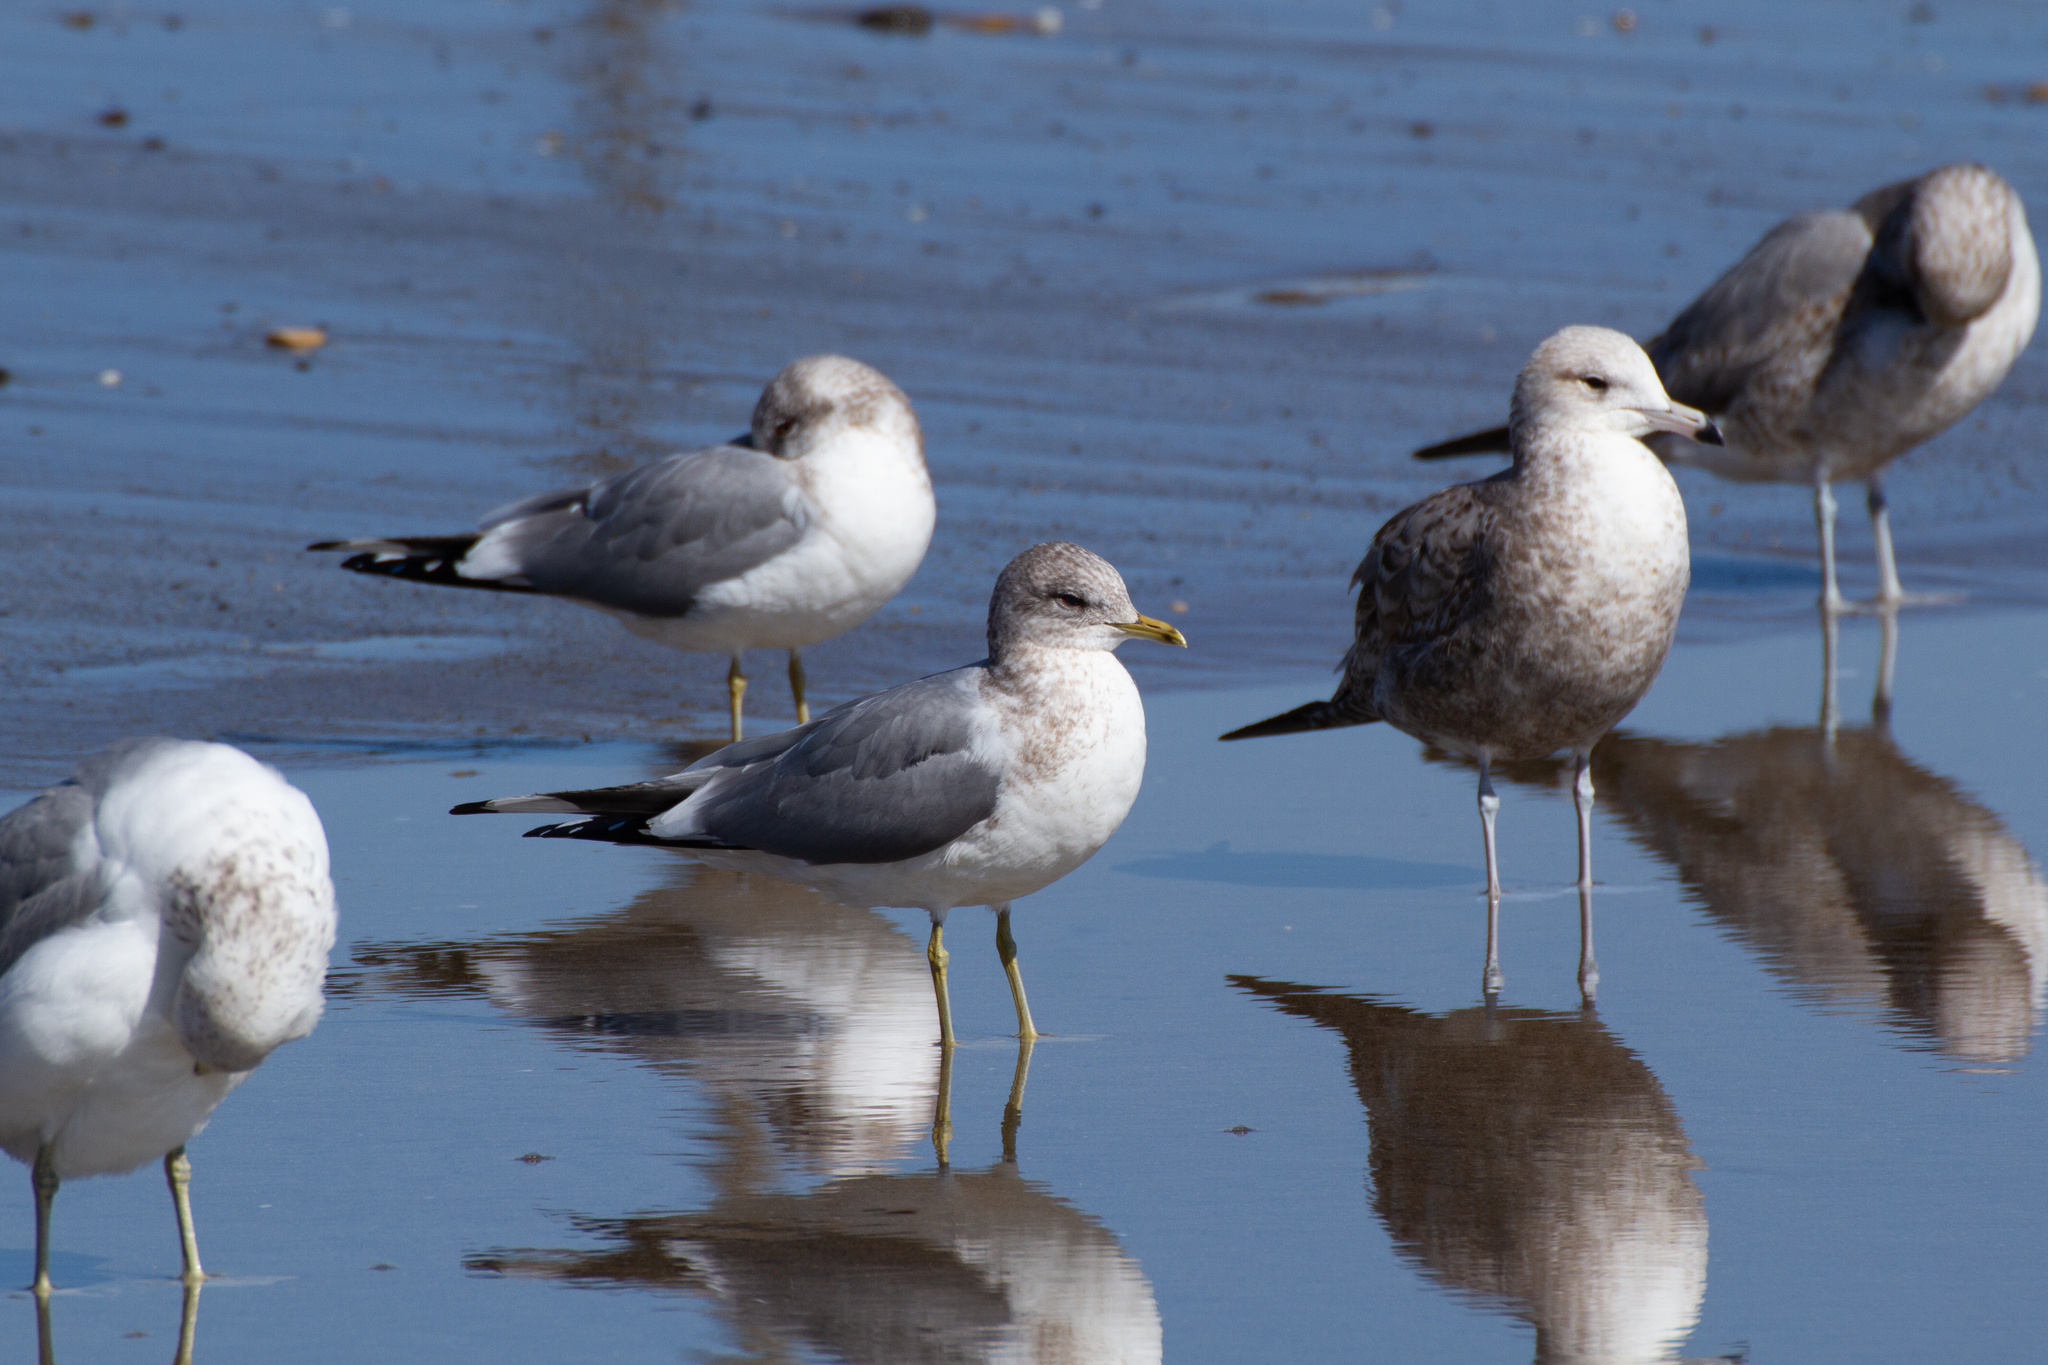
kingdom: Animalia
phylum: Chordata
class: Aves
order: Charadriiformes
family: Laridae
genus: Larus
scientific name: Larus brachyrhynchus
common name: Short-billed gull
